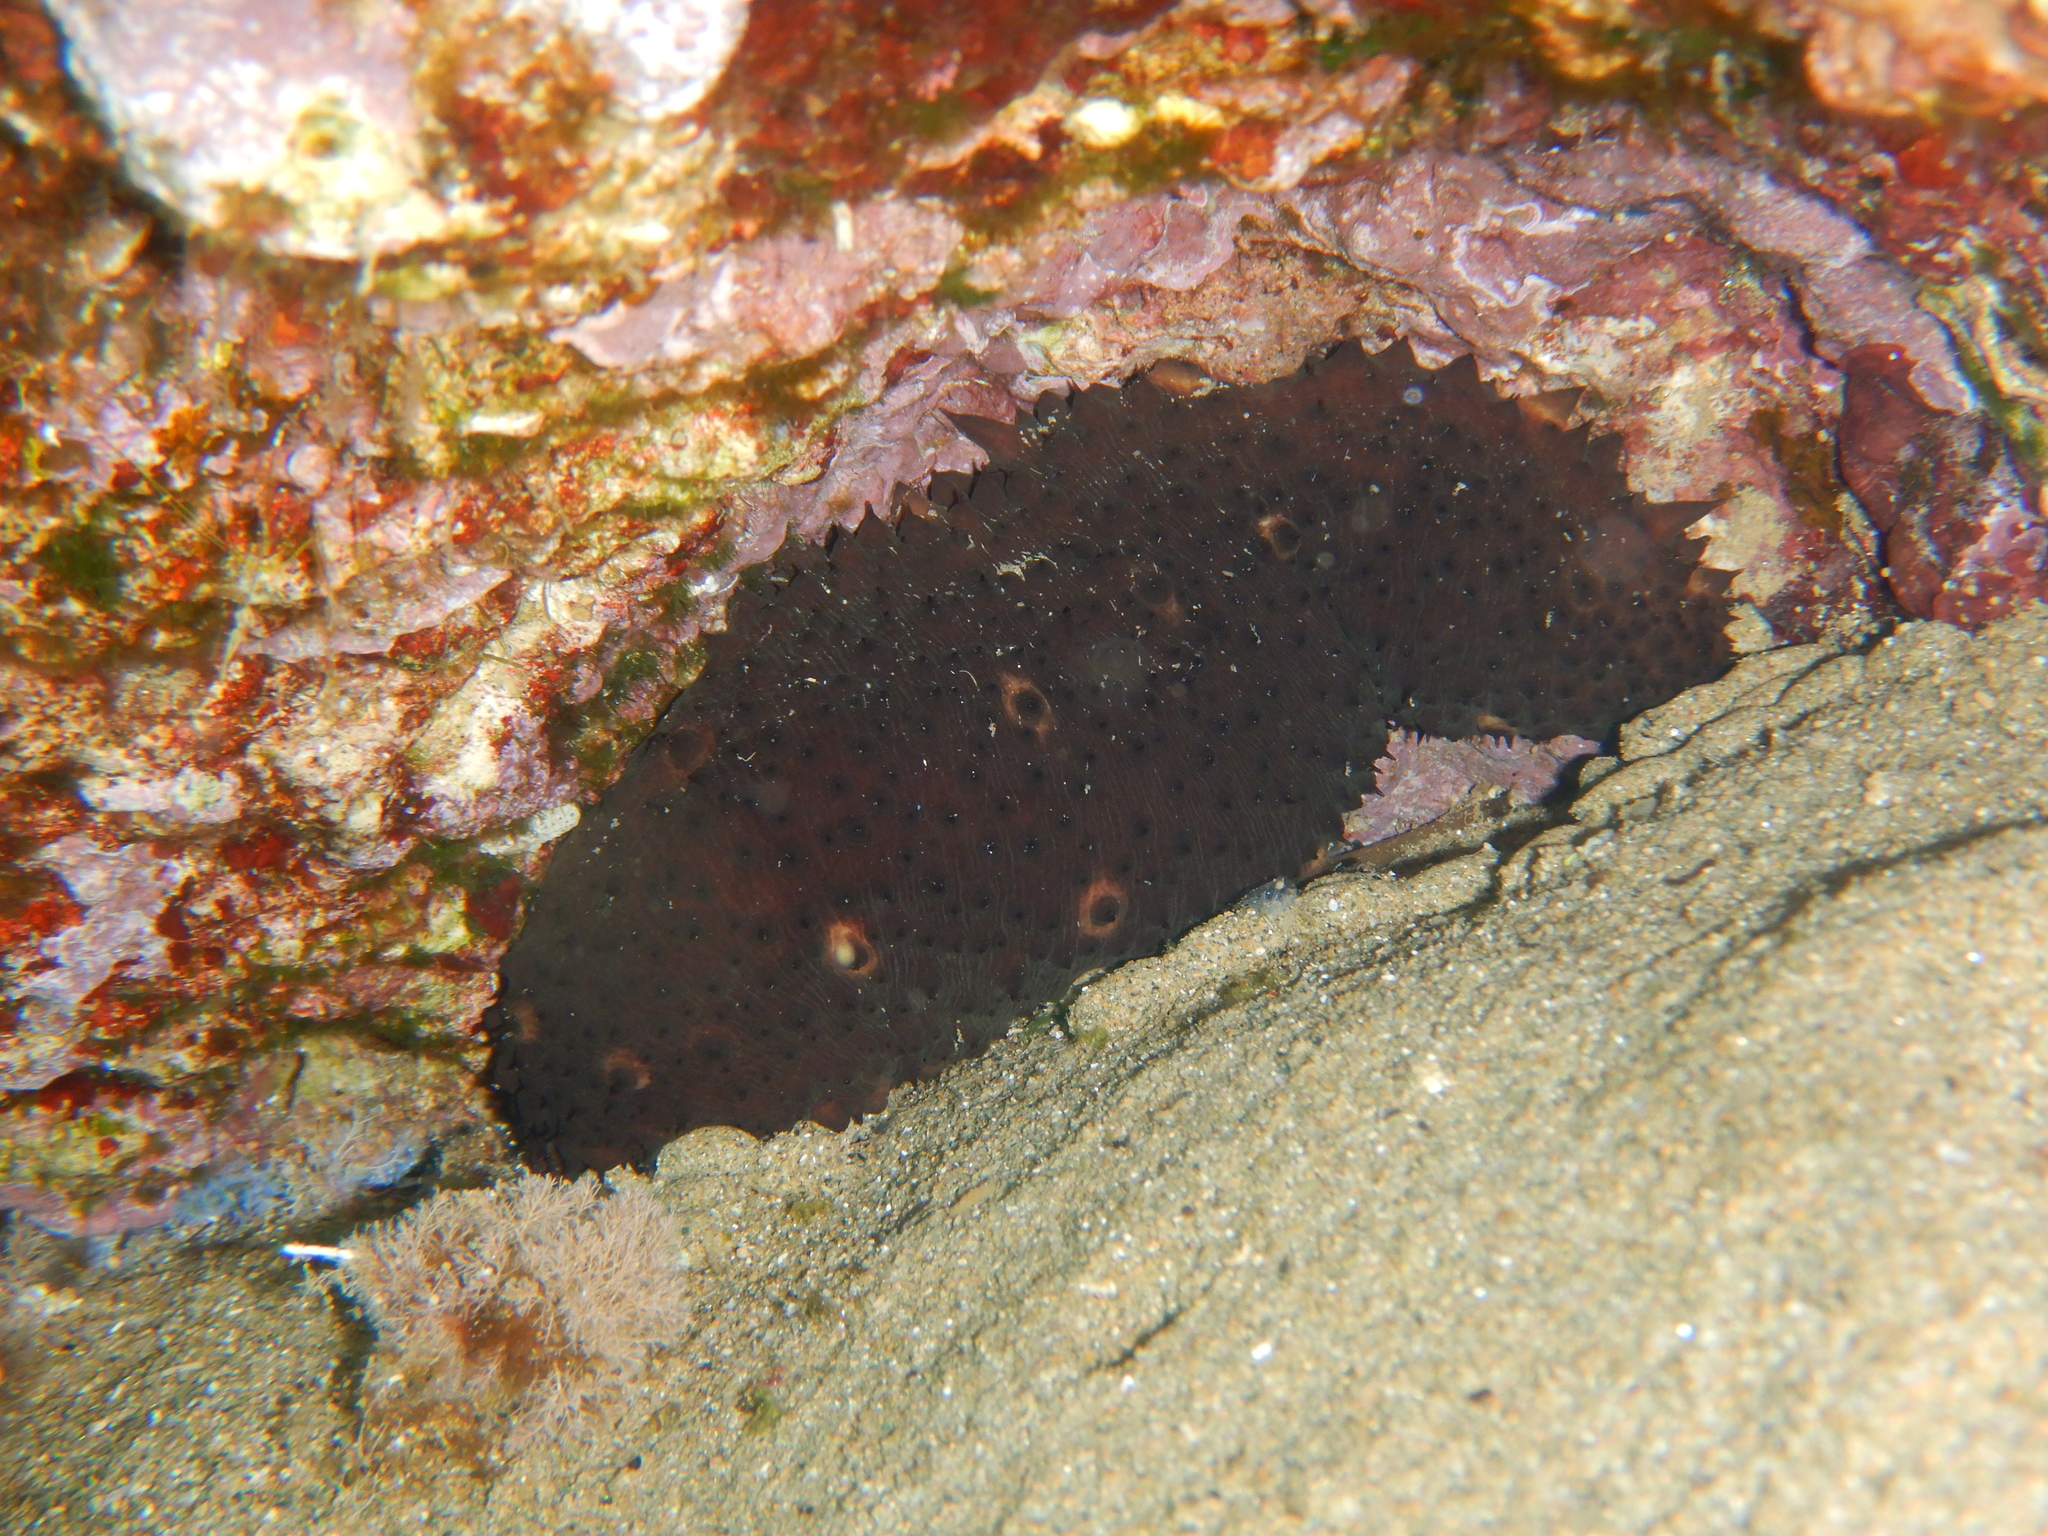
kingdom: Animalia
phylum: Echinodermata
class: Holothuroidea
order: Holothuriida
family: Holothuriidae
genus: Holothuria
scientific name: Holothuria sanctori
